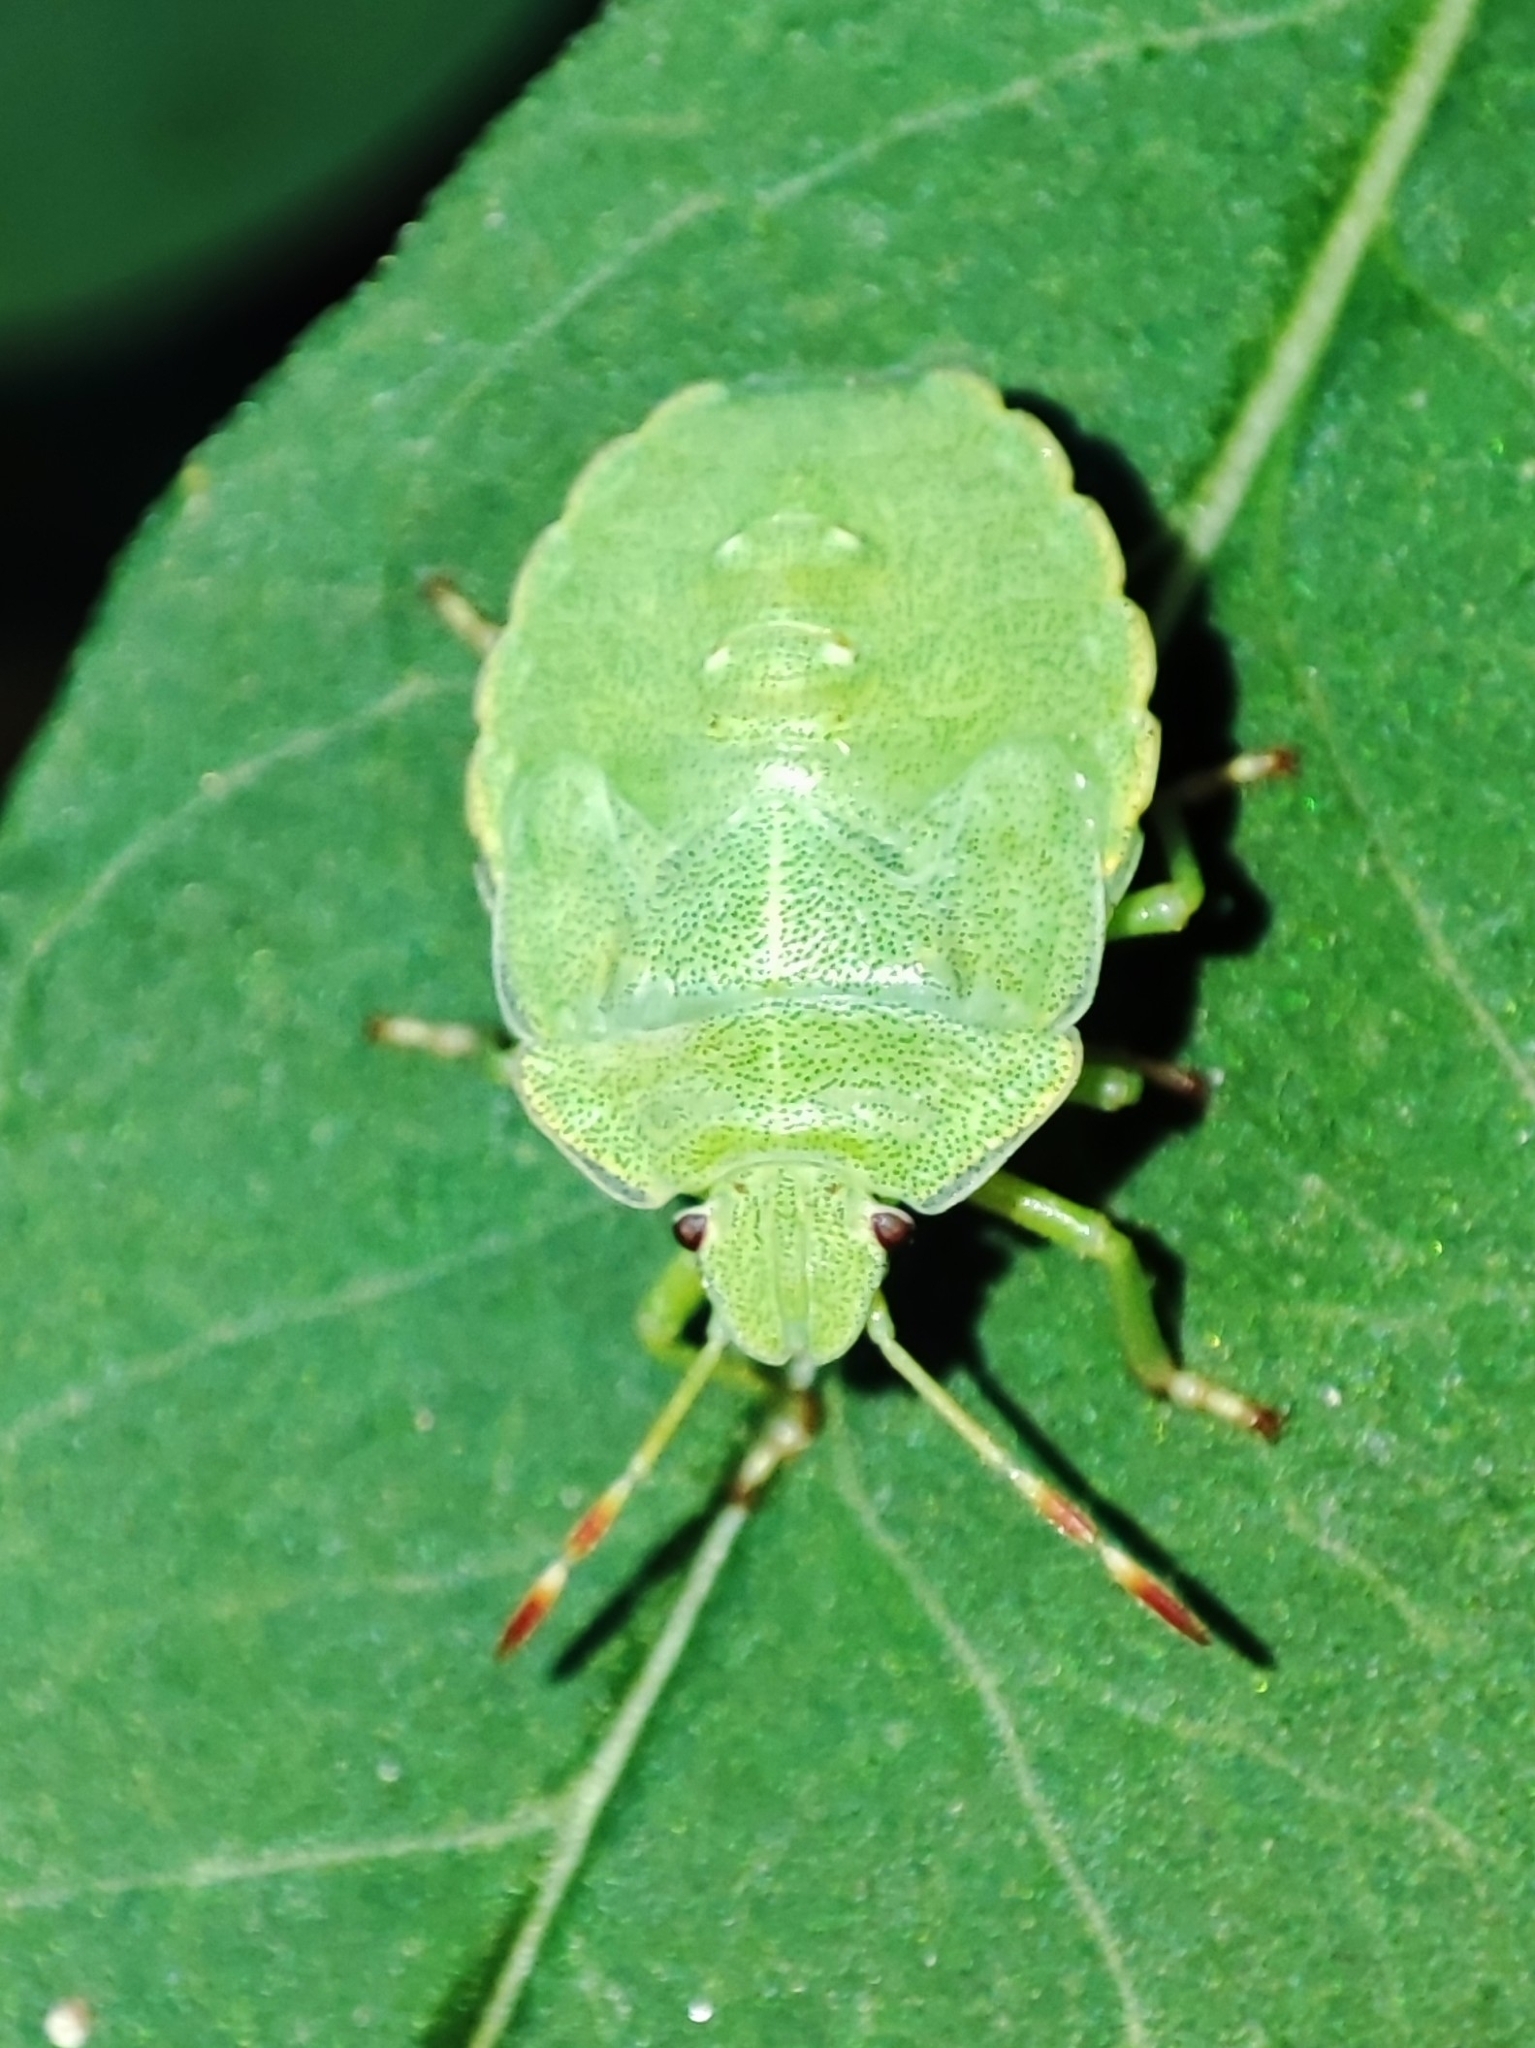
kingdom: Animalia
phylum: Arthropoda
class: Insecta
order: Hemiptera
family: Pentatomidae
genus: Palomena
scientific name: Palomena prasina
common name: Green shieldbug
